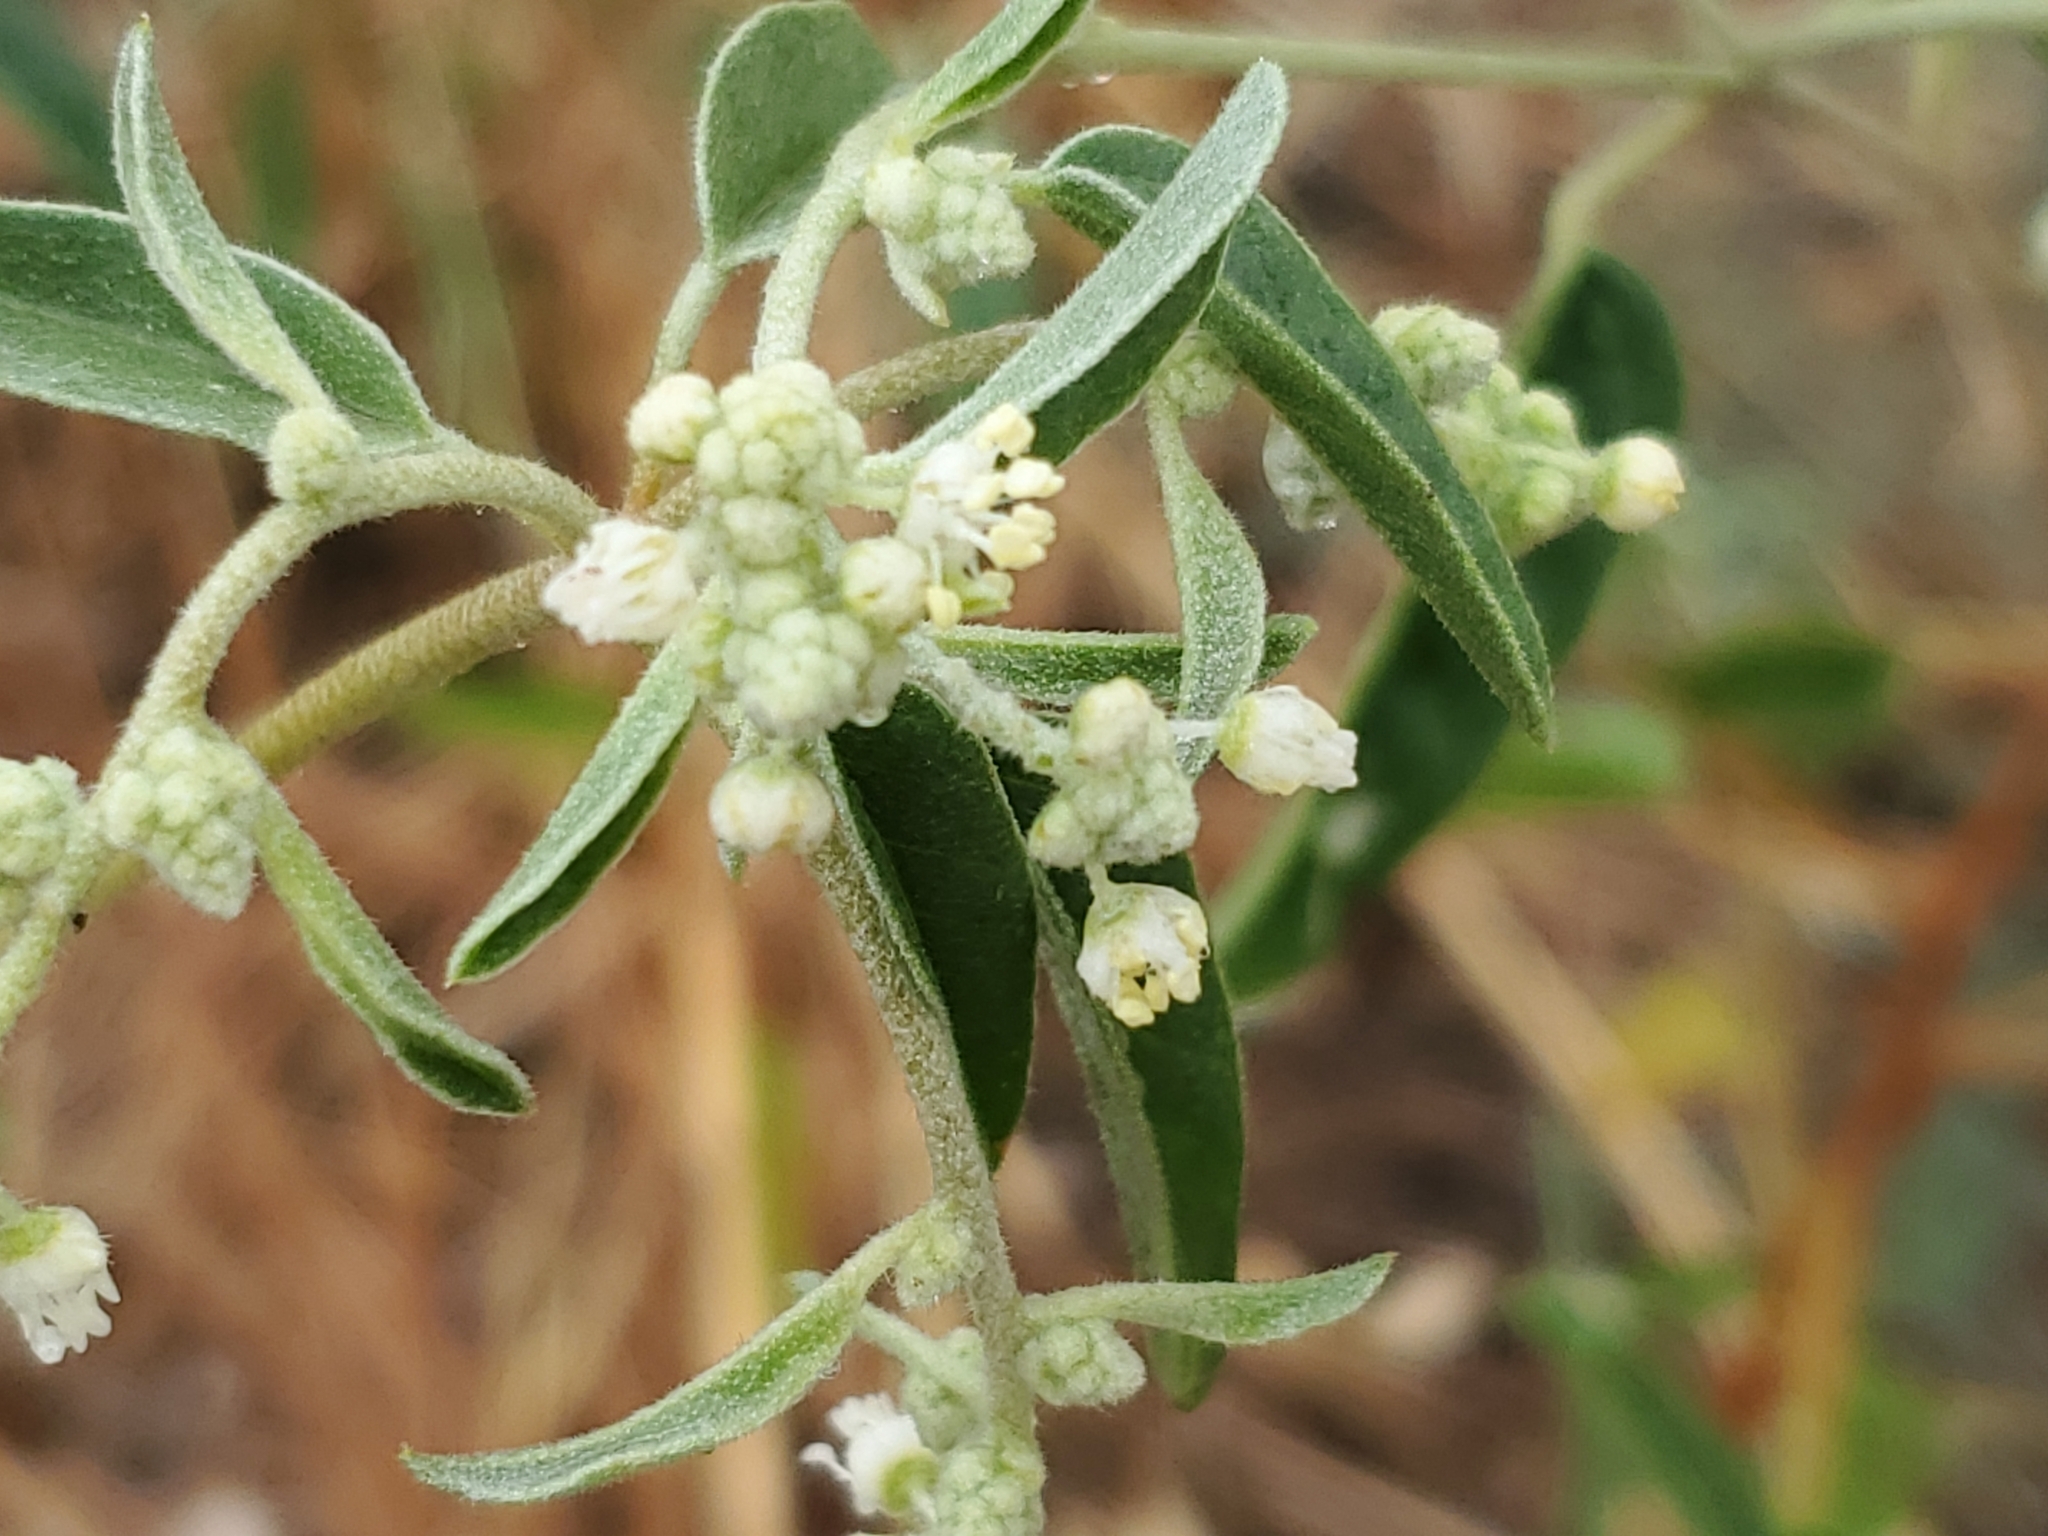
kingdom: Plantae
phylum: Tracheophyta
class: Magnoliopsida
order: Malpighiales
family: Euphorbiaceae
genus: Croton
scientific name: Croton texensis
